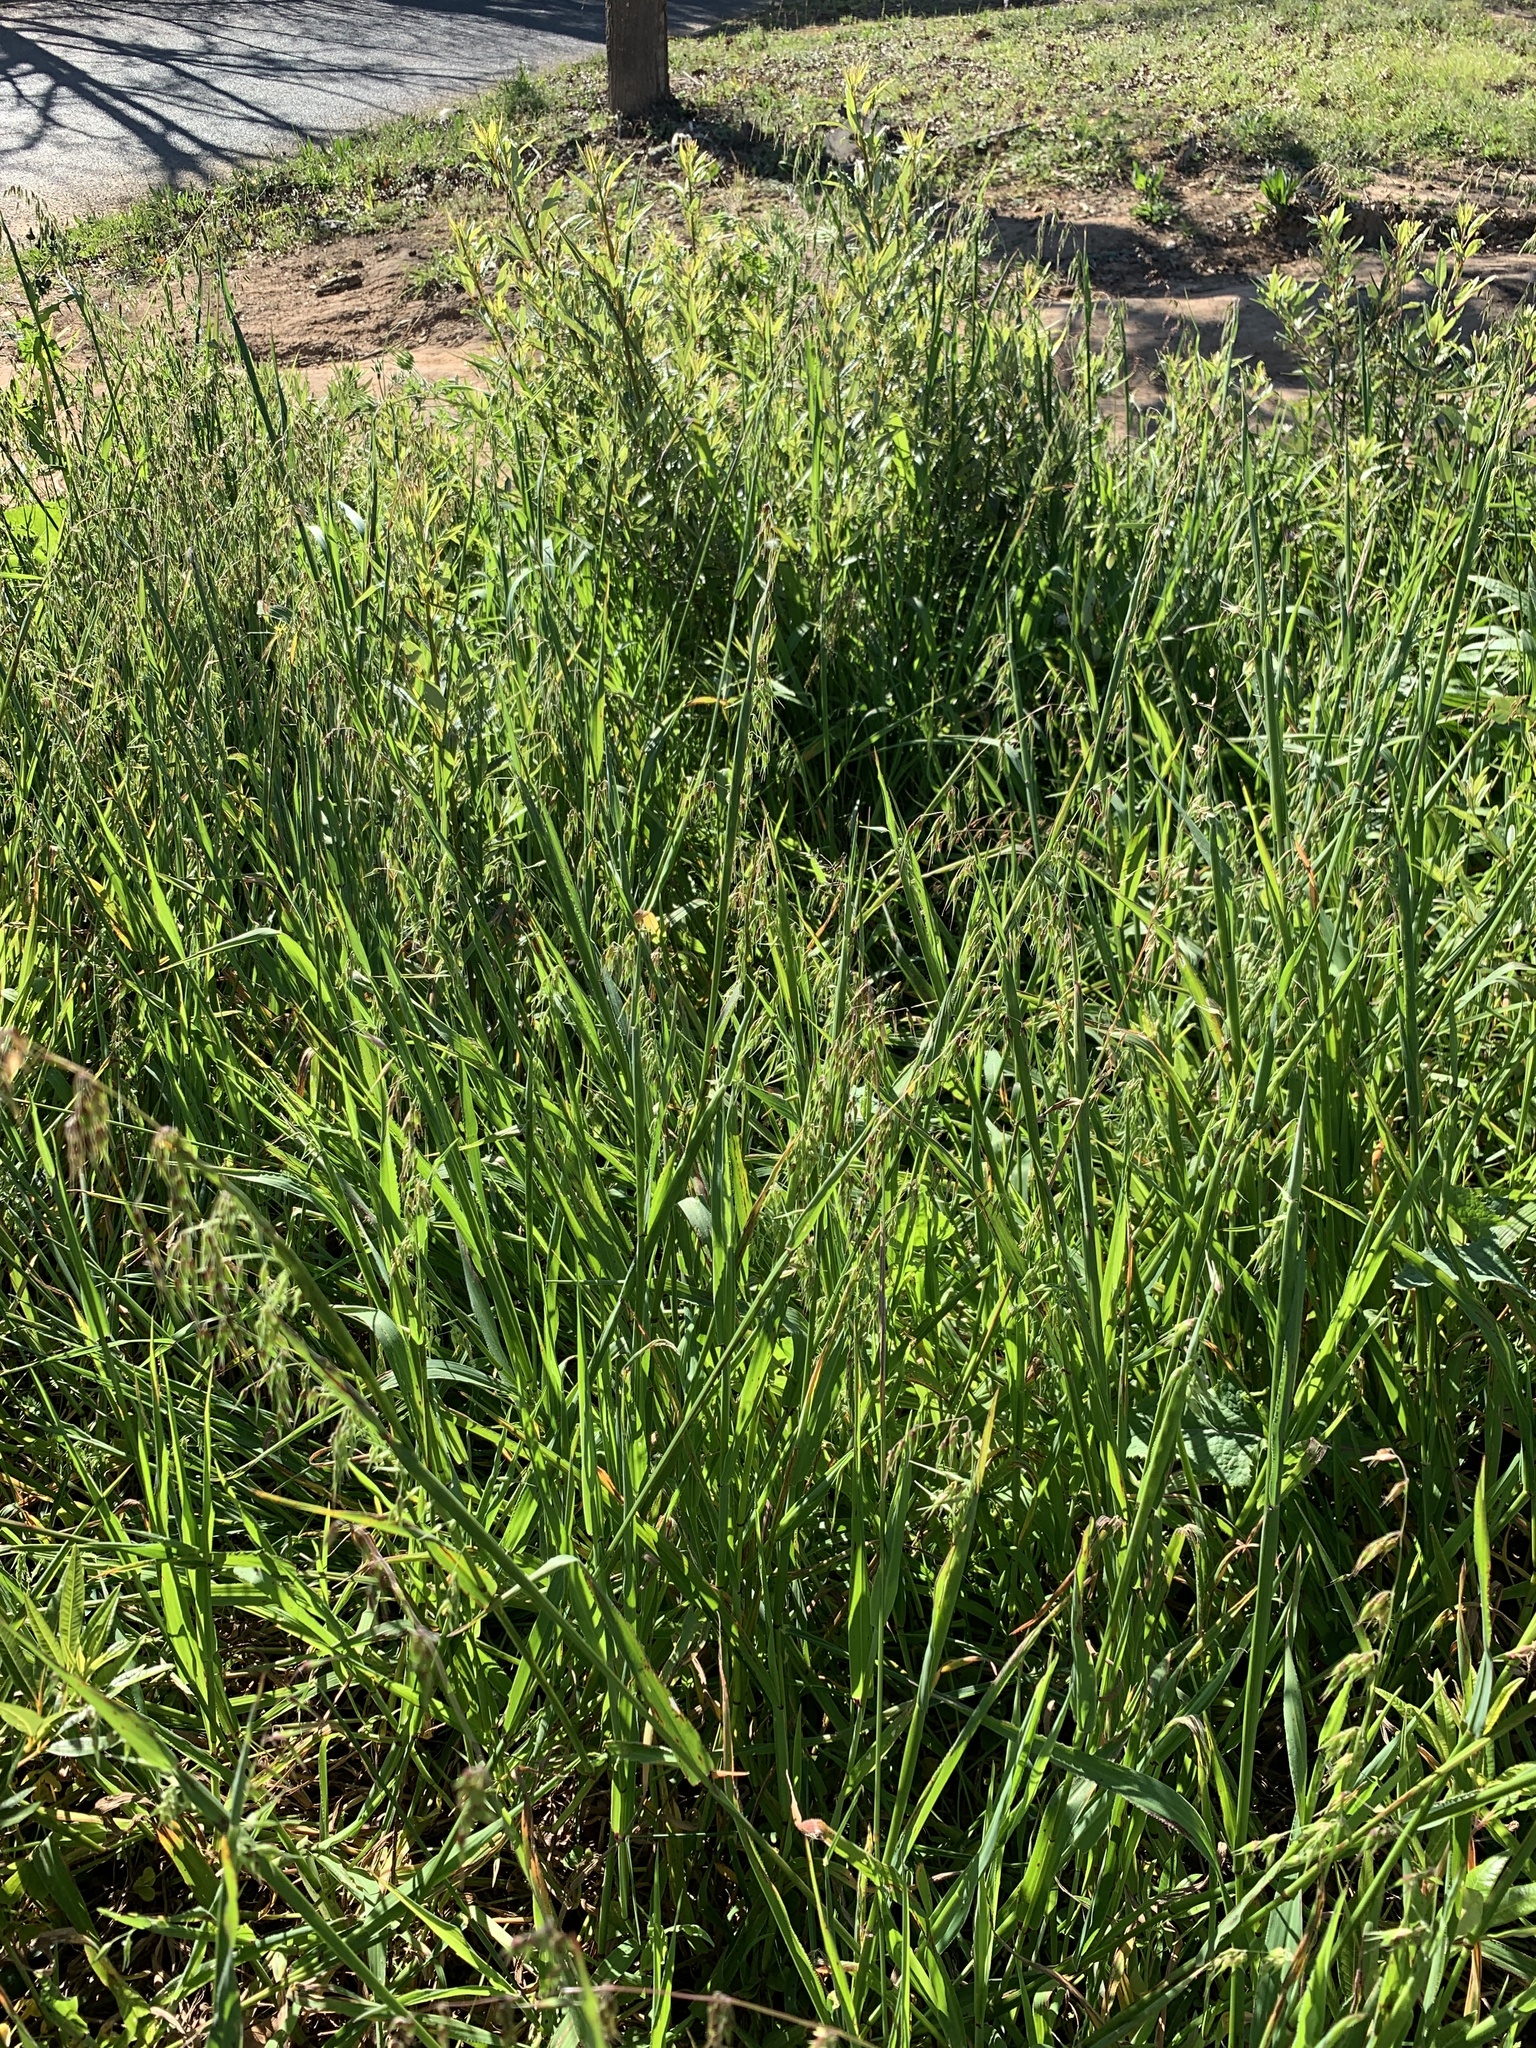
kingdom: Plantae
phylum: Tracheophyta
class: Liliopsida
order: Poales
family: Poaceae
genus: Ehrharta
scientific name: Ehrharta longiflora
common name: Longflowered veldtgrass
